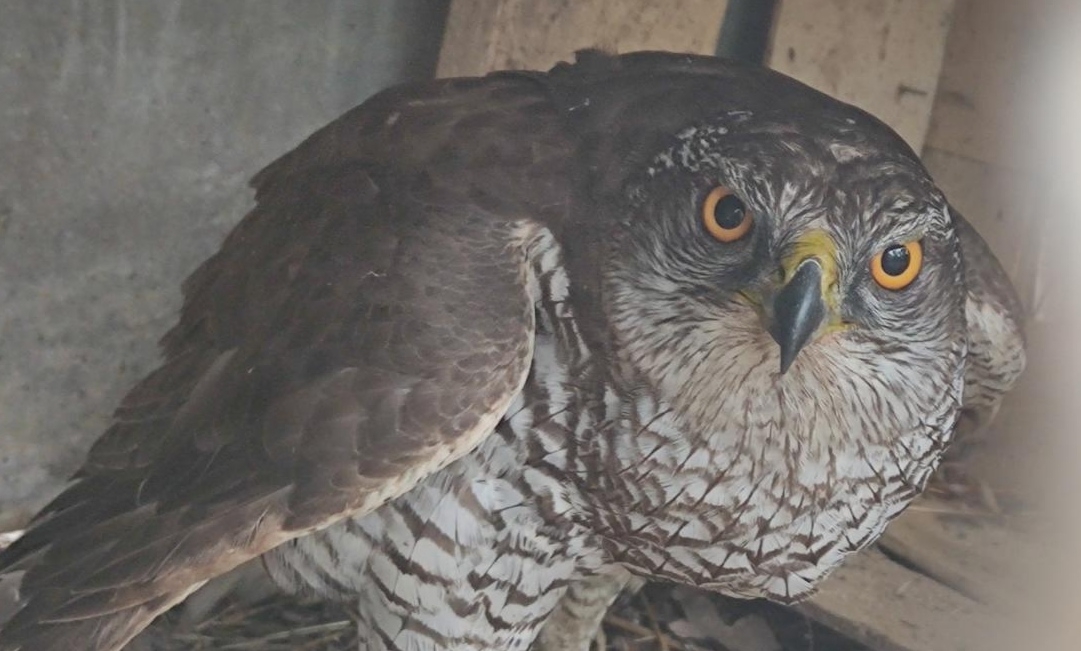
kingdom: Animalia
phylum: Chordata
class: Aves
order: Accipitriformes
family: Accipitridae
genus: Accipiter
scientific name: Accipiter gentilis
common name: Northern goshawk
